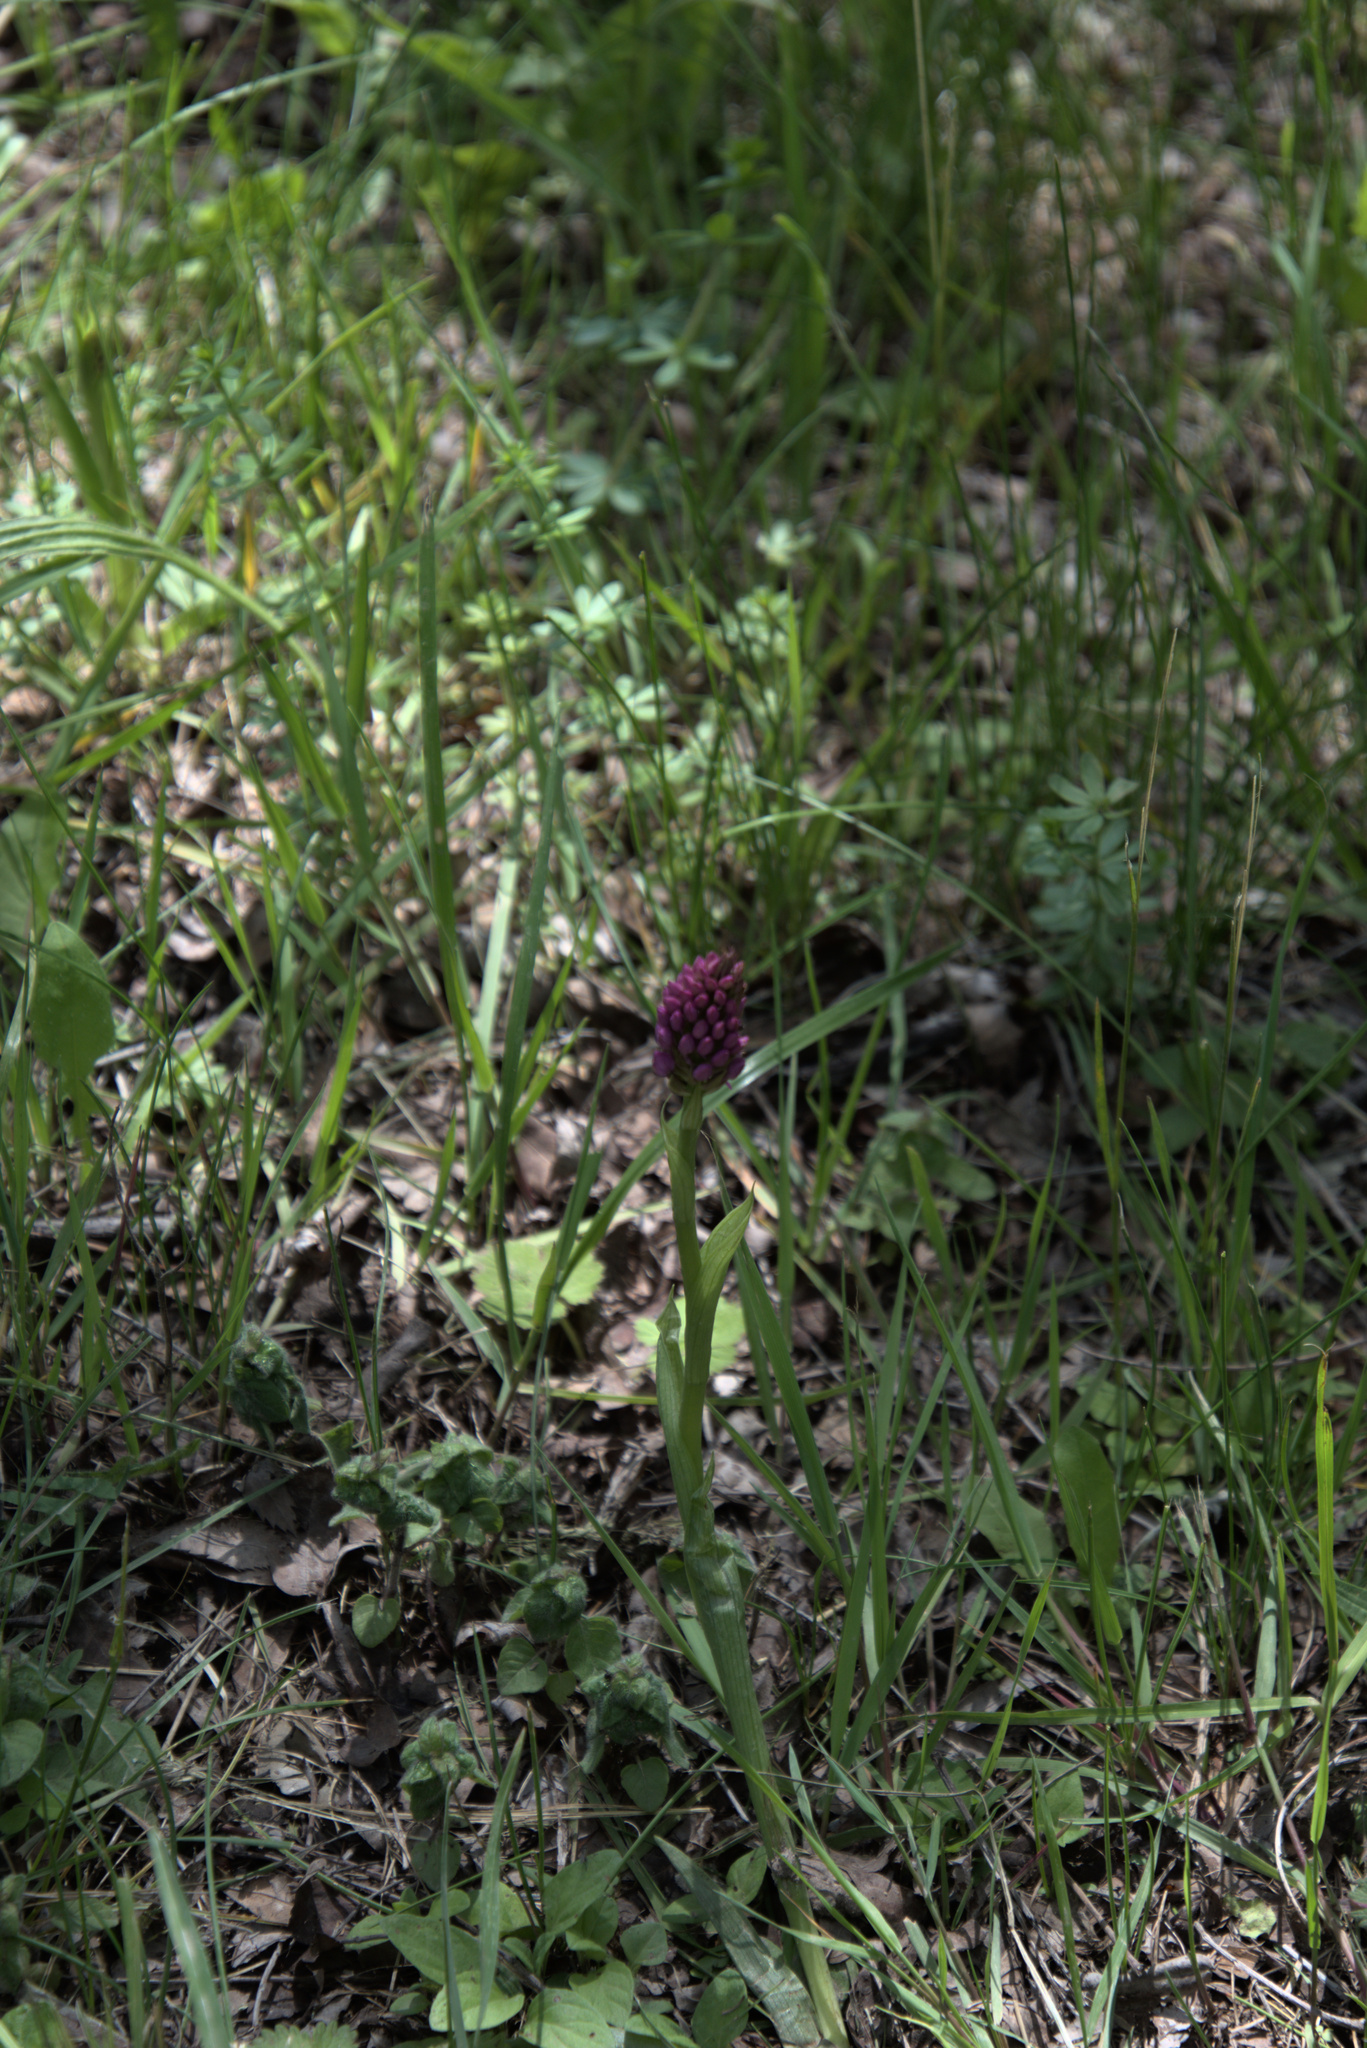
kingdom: Plantae
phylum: Tracheophyta
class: Liliopsida
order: Asparagales
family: Orchidaceae
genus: Anacamptis
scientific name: Anacamptis pyramidalis
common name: Pyramidal orchid
